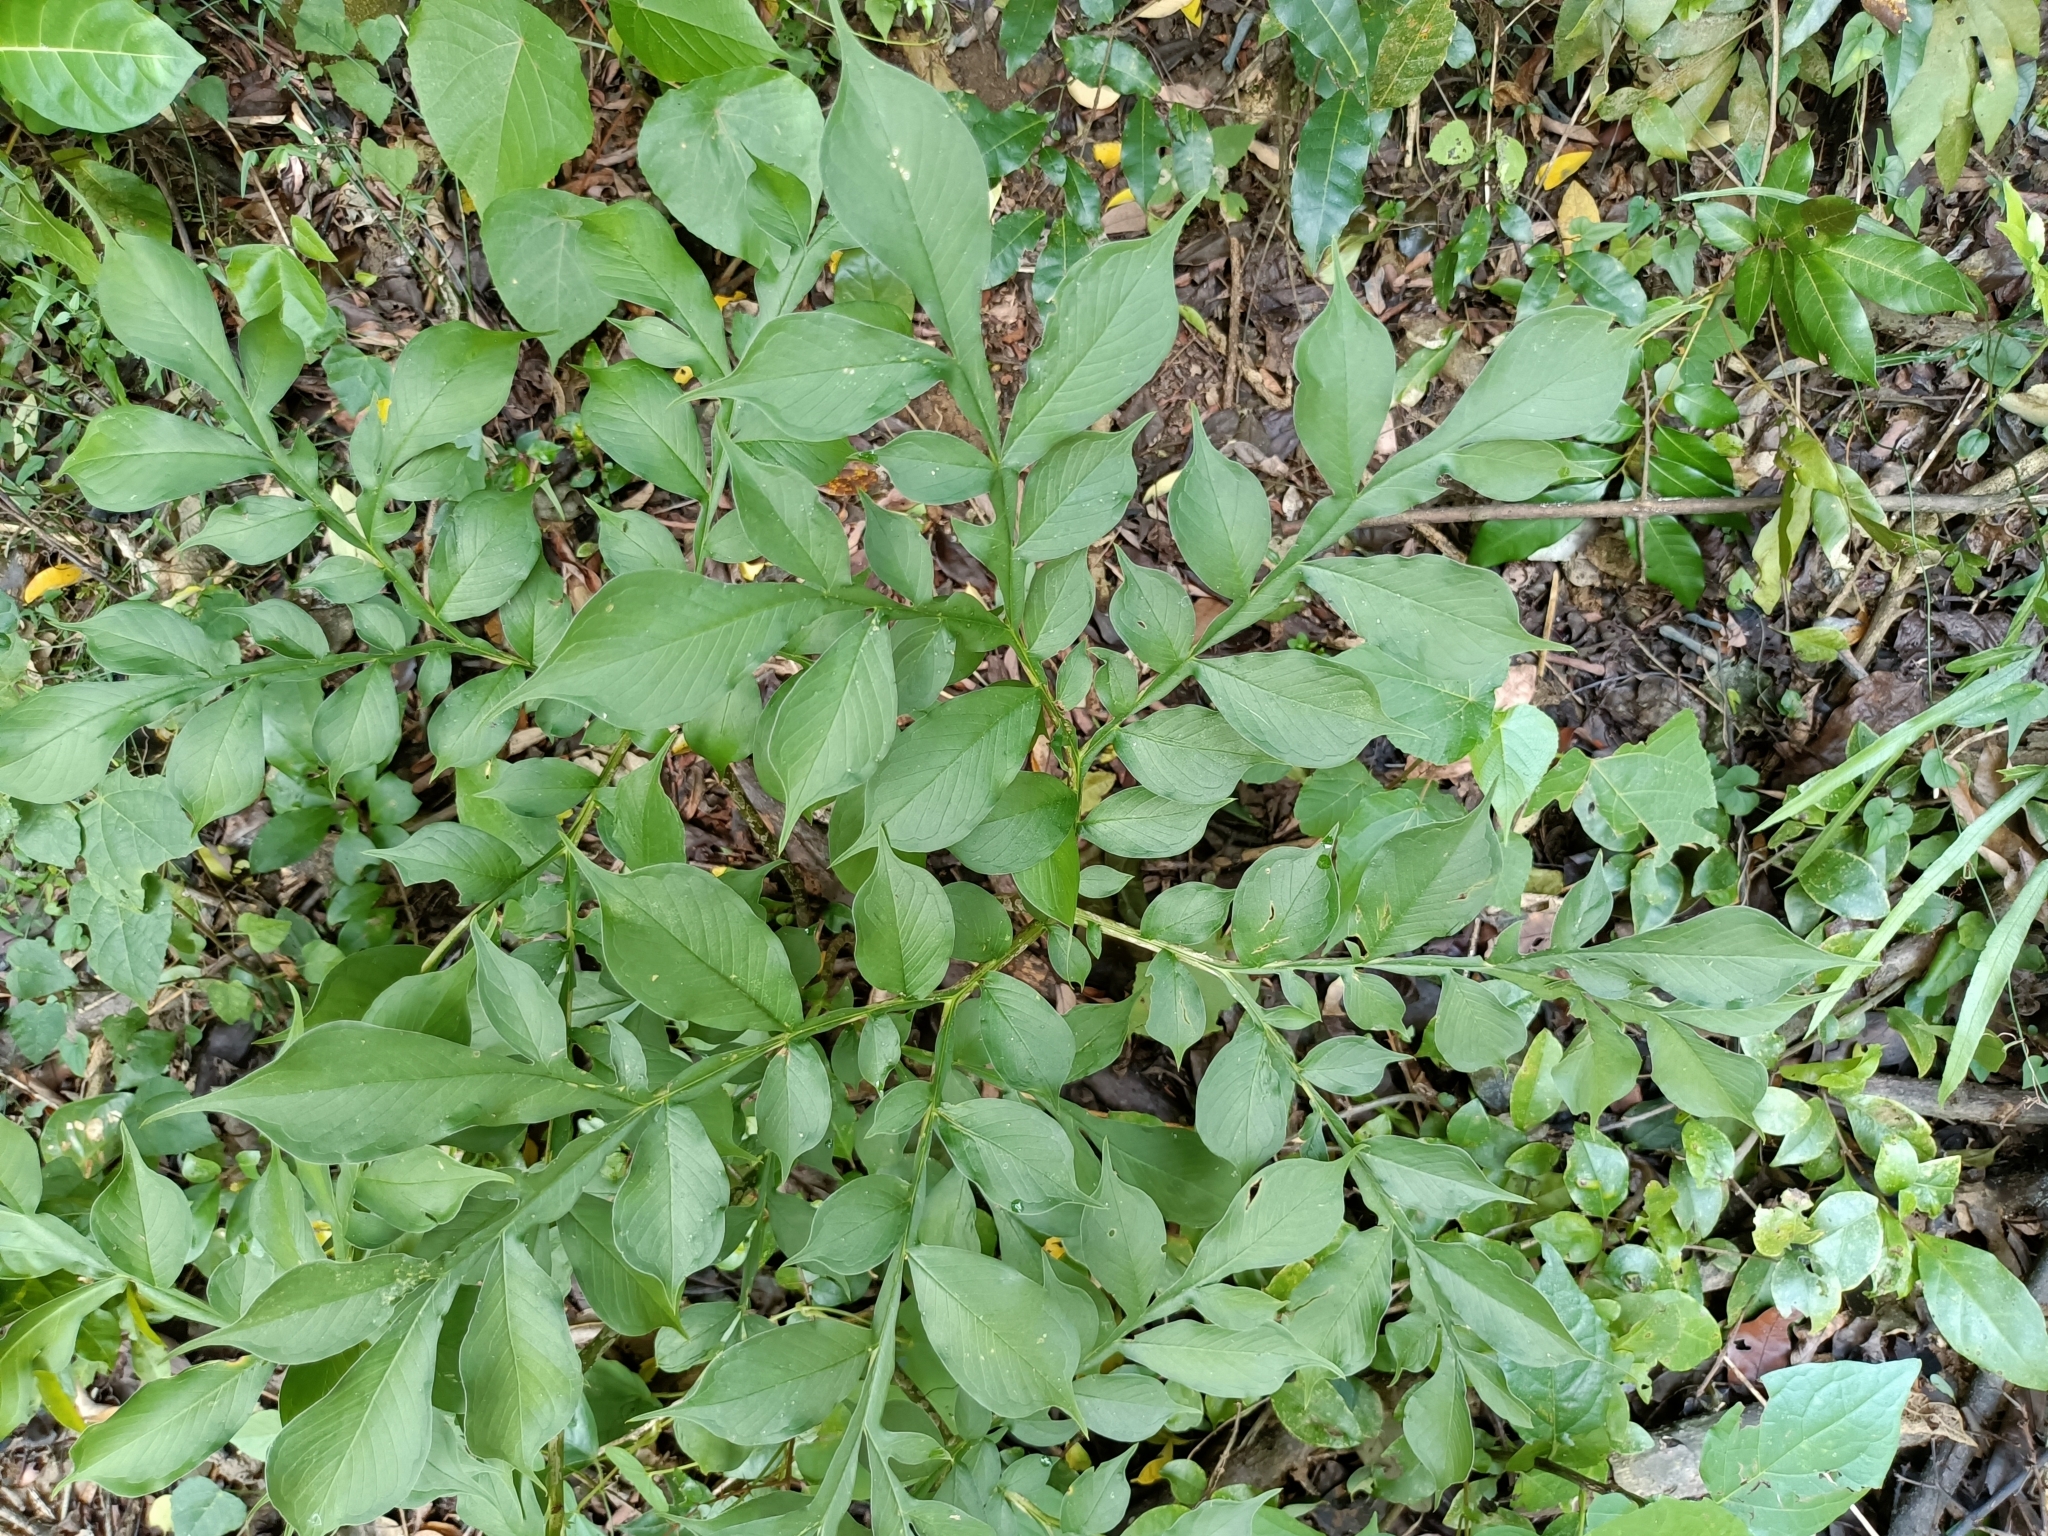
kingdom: Plantae
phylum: Tracheophyta
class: Liliopsida
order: Alismatales
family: Araceae
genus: Amorphophallus
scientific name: Amorphophallus hirtus
